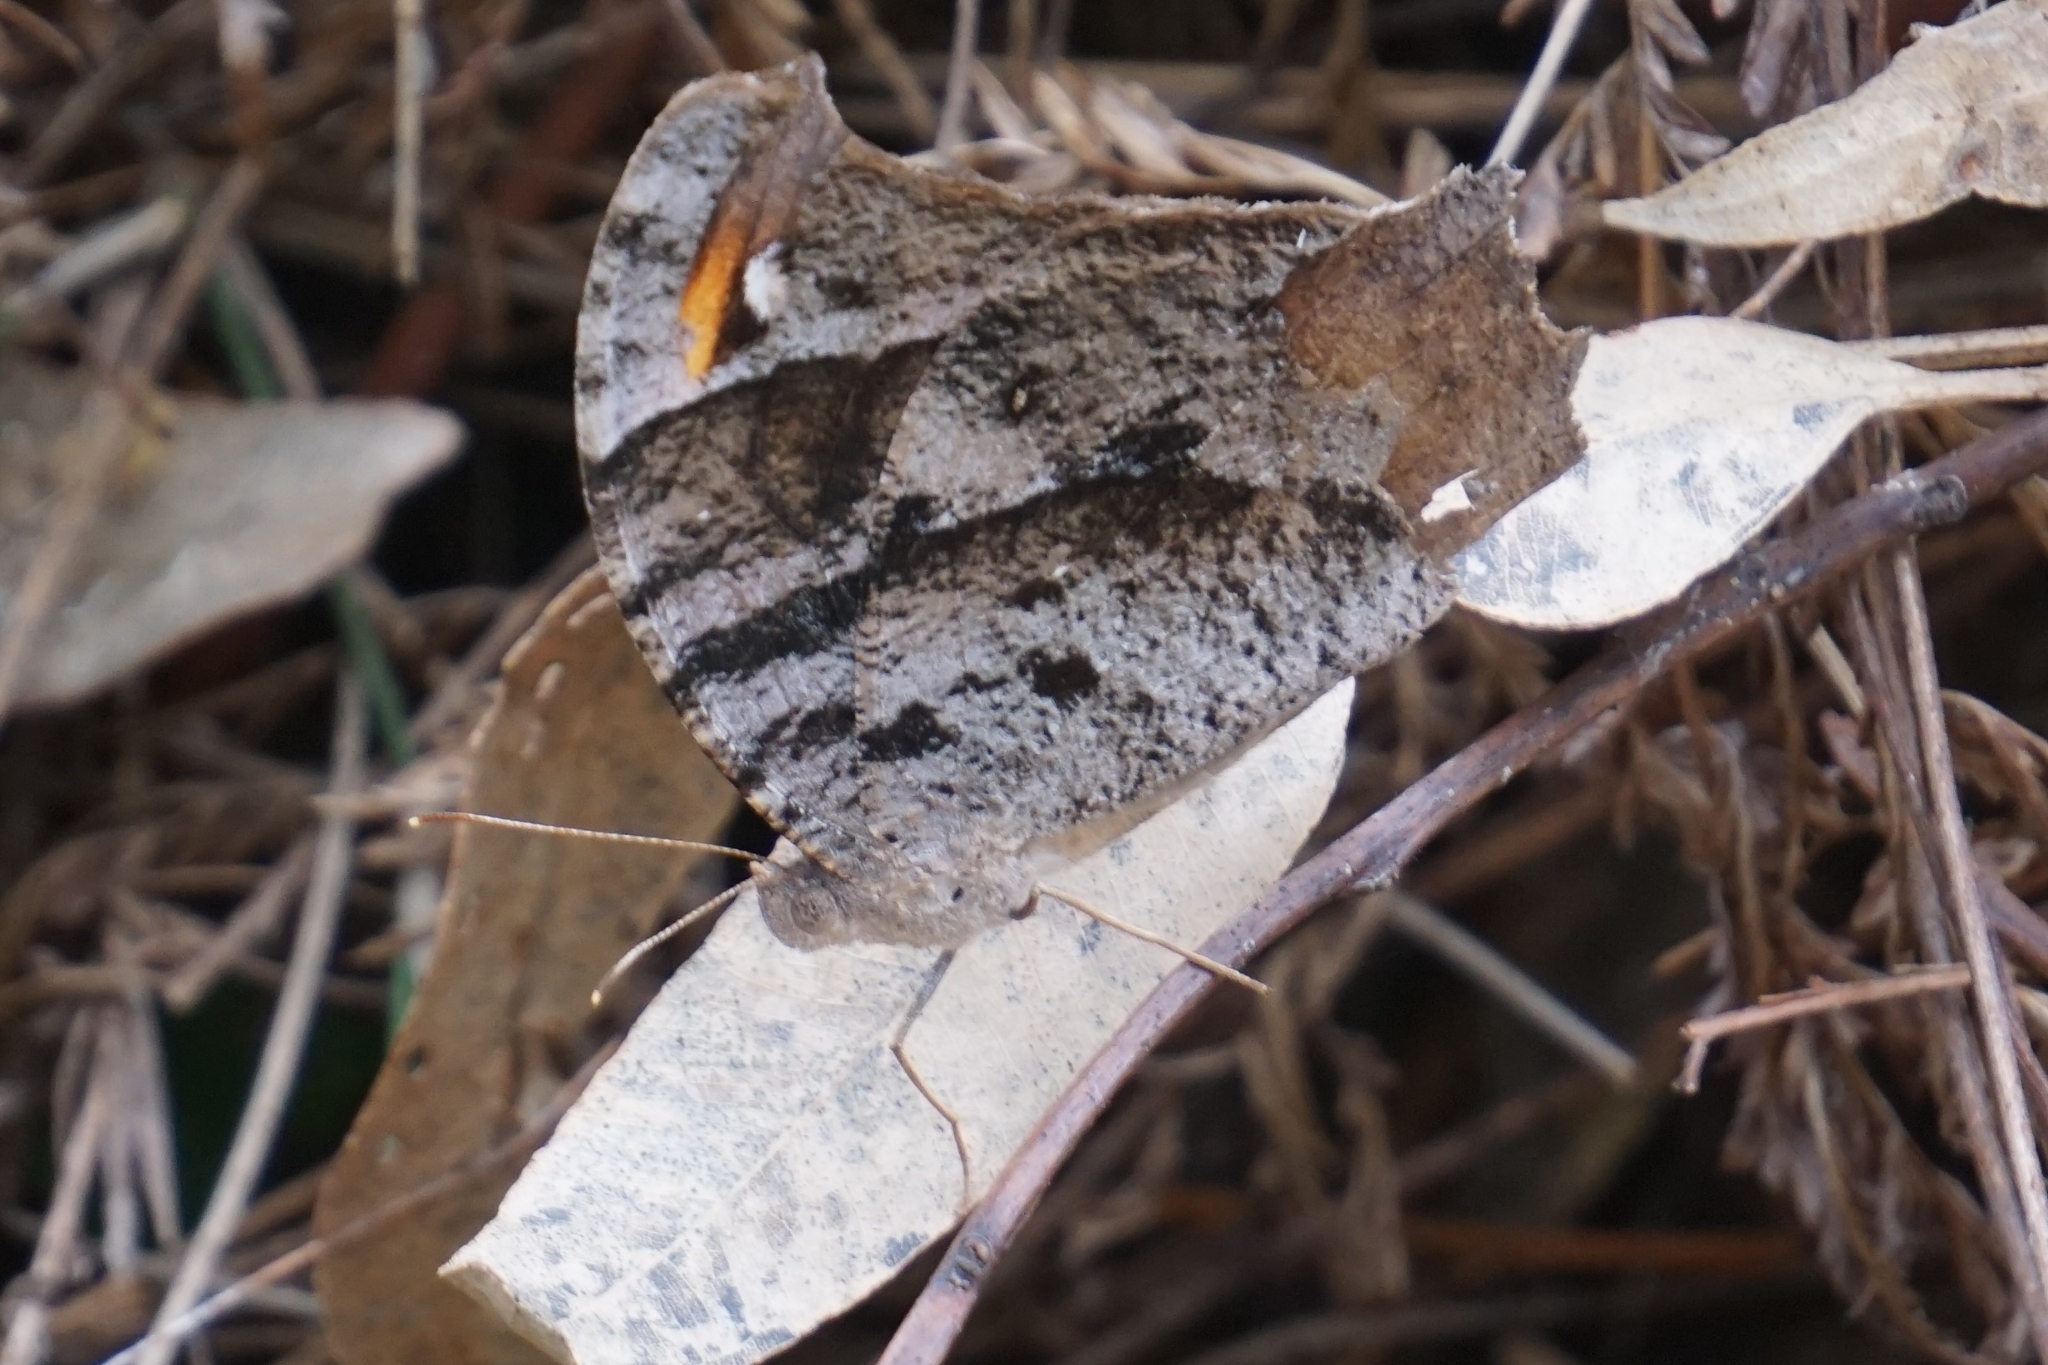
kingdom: Animalia
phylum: Arthropoda
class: Insecta
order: Lepidoptera
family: Nymphalidae
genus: Melanitis
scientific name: Melanitis leda
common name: Twilight brown
